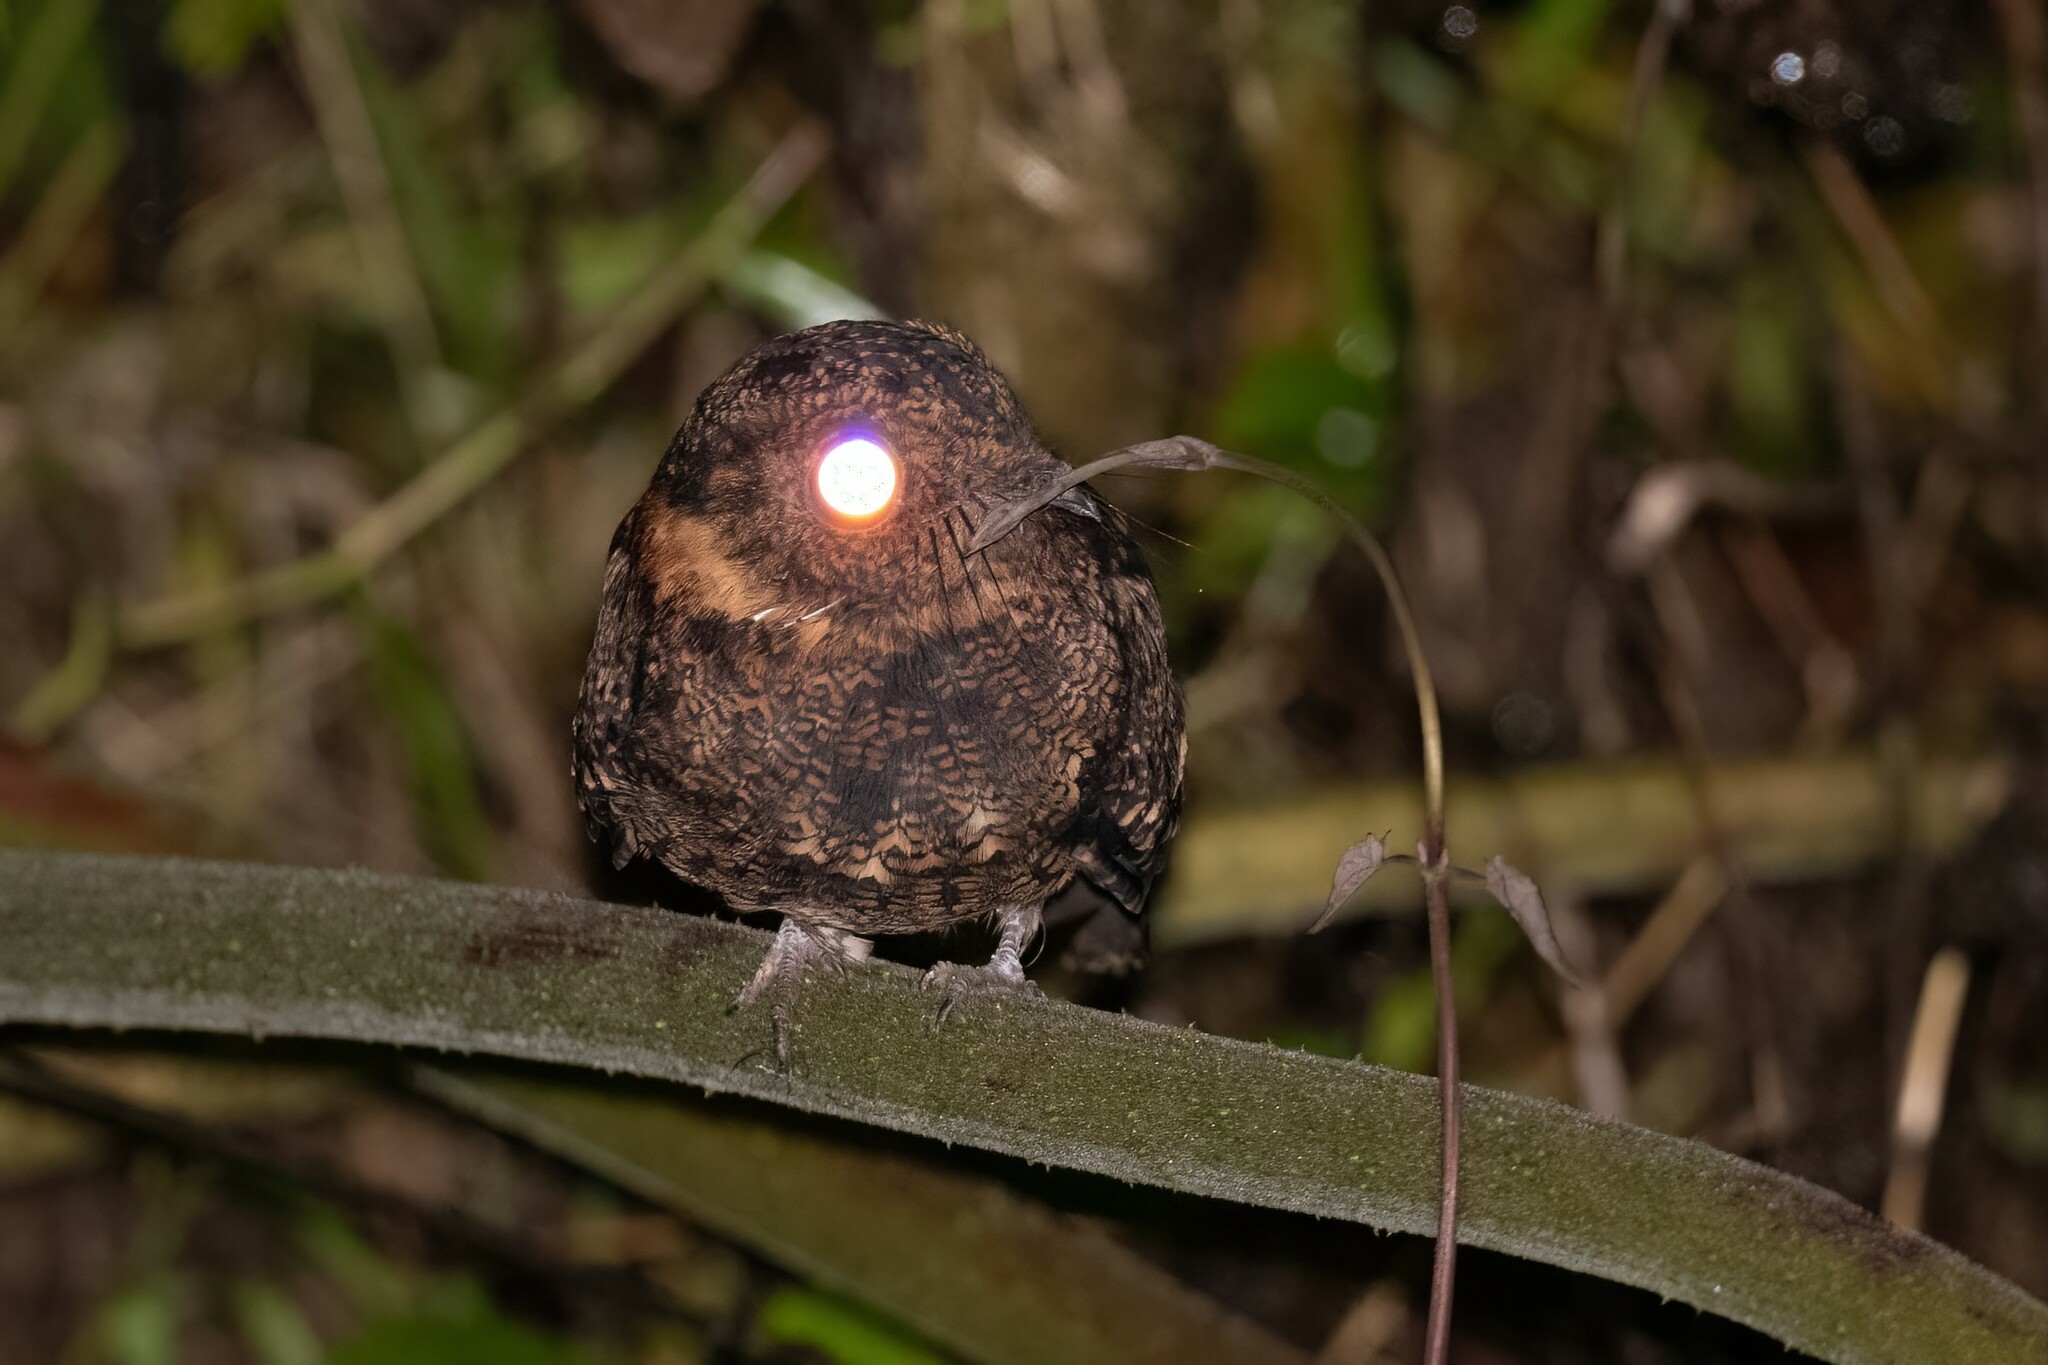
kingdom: Animalia
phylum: Chordata
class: Aves
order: Caprimulgiformes
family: Caprimulgidae
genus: Uropsalis
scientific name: Uropsalis lyra
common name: Lyre-tailed nightjar
